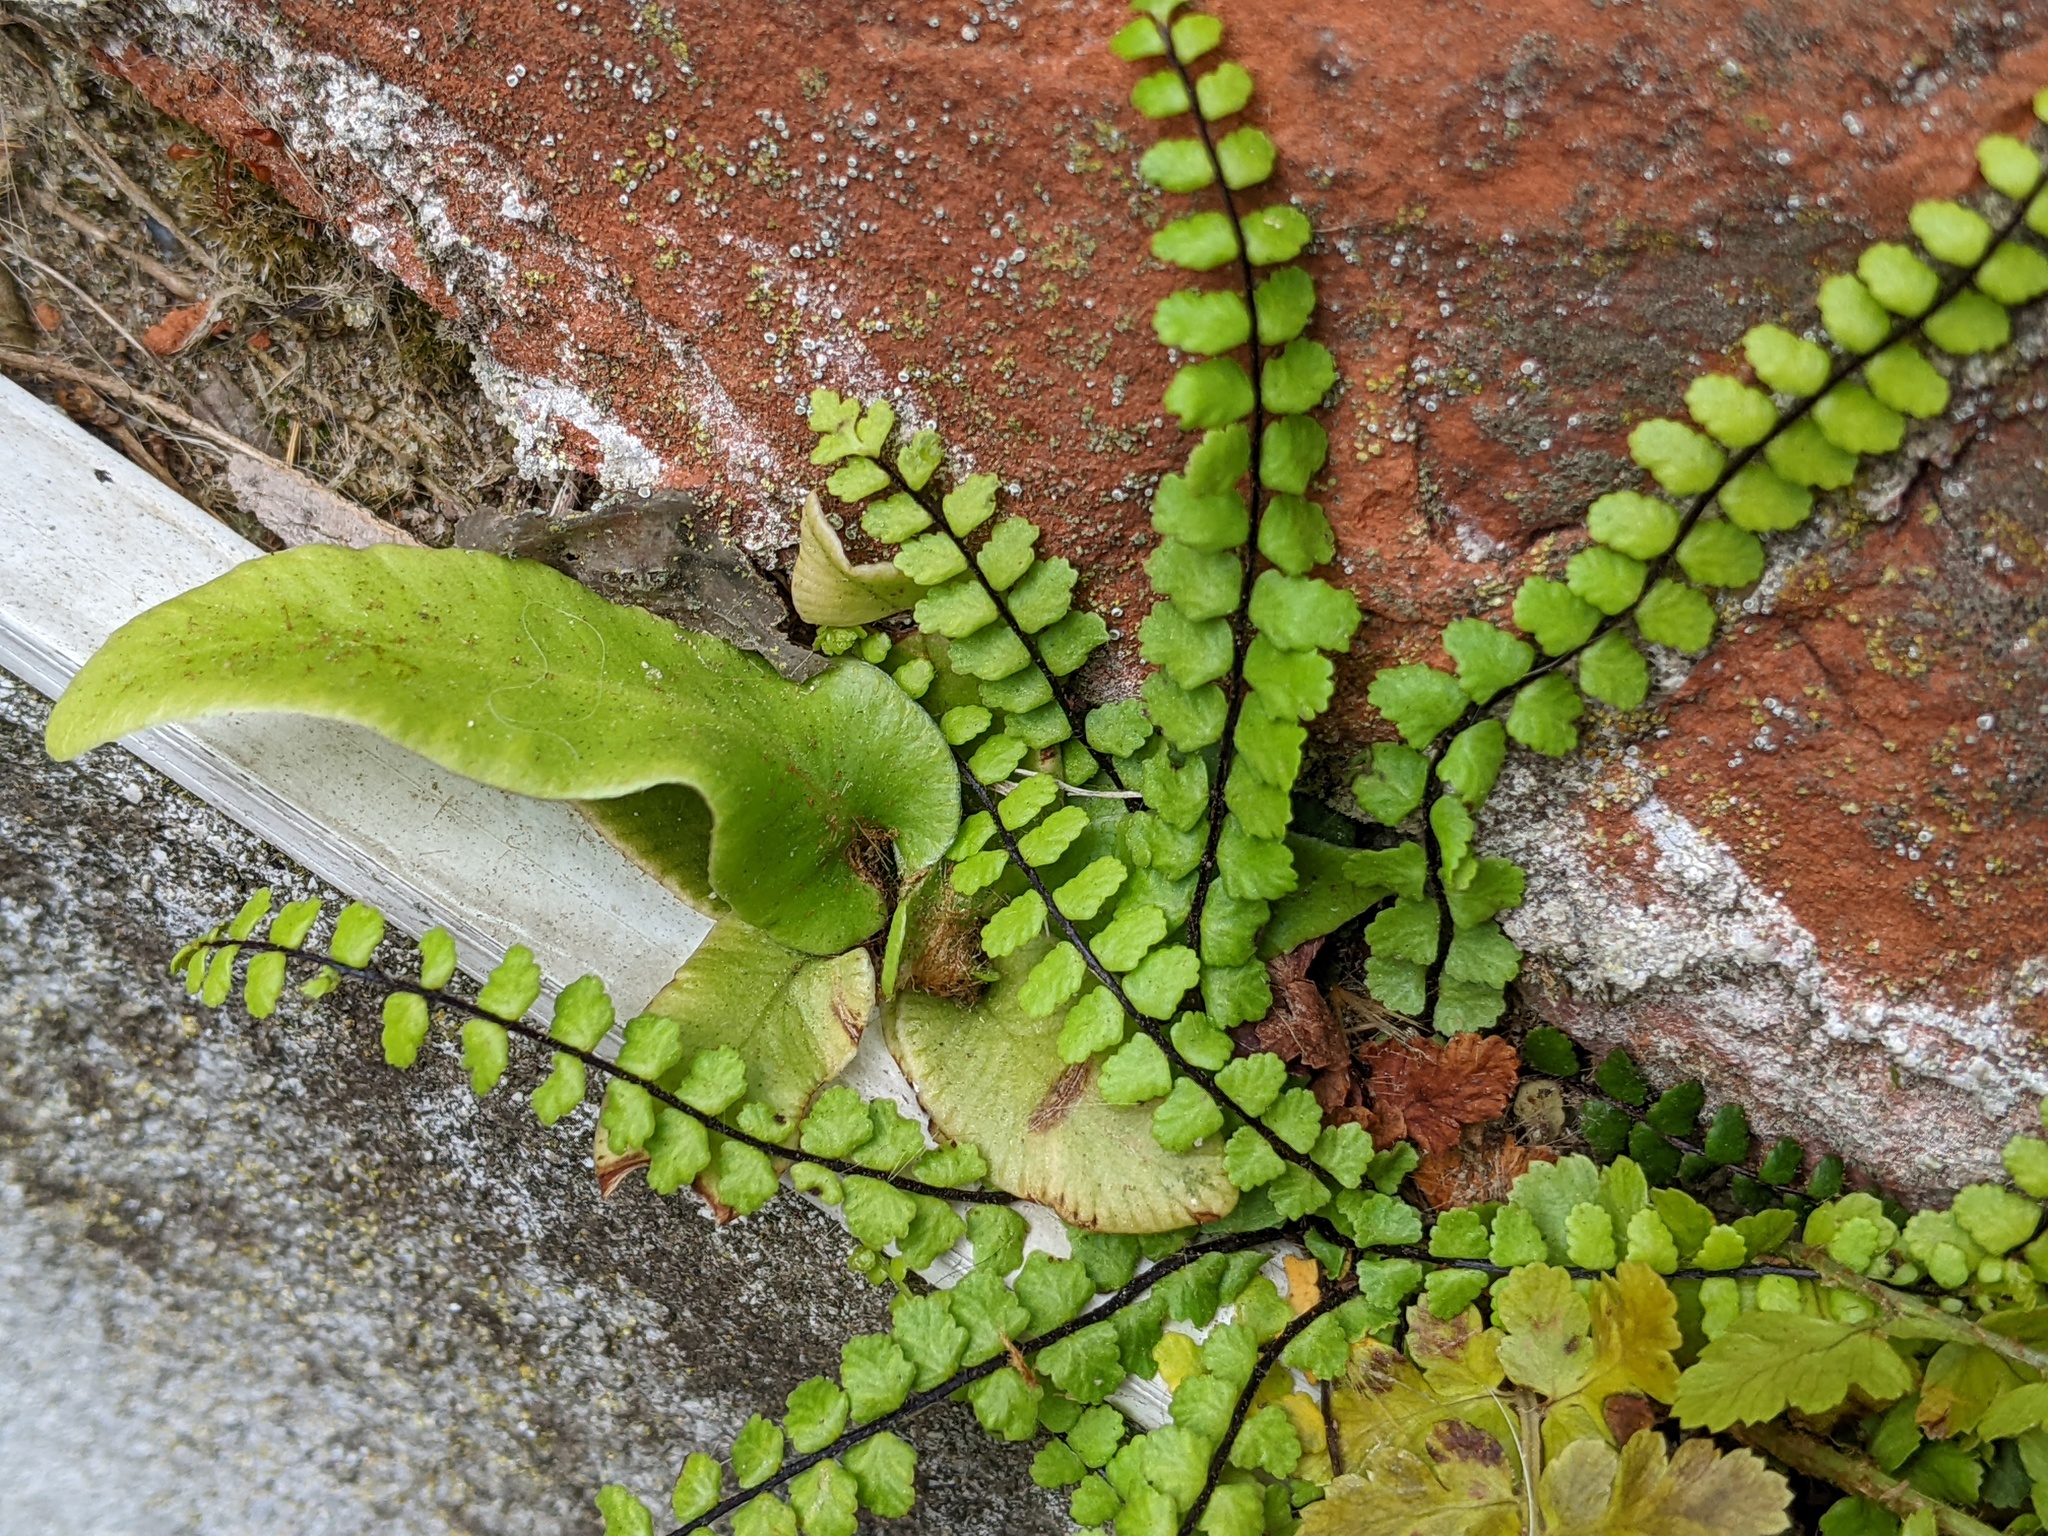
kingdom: Plantae
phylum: Tracheophyta
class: Polypodiopsida
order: Polypodiales
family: Aspleniaceae
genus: Asplenium
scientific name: Asplenium trichomanes
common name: Maidenhair spleenwort
